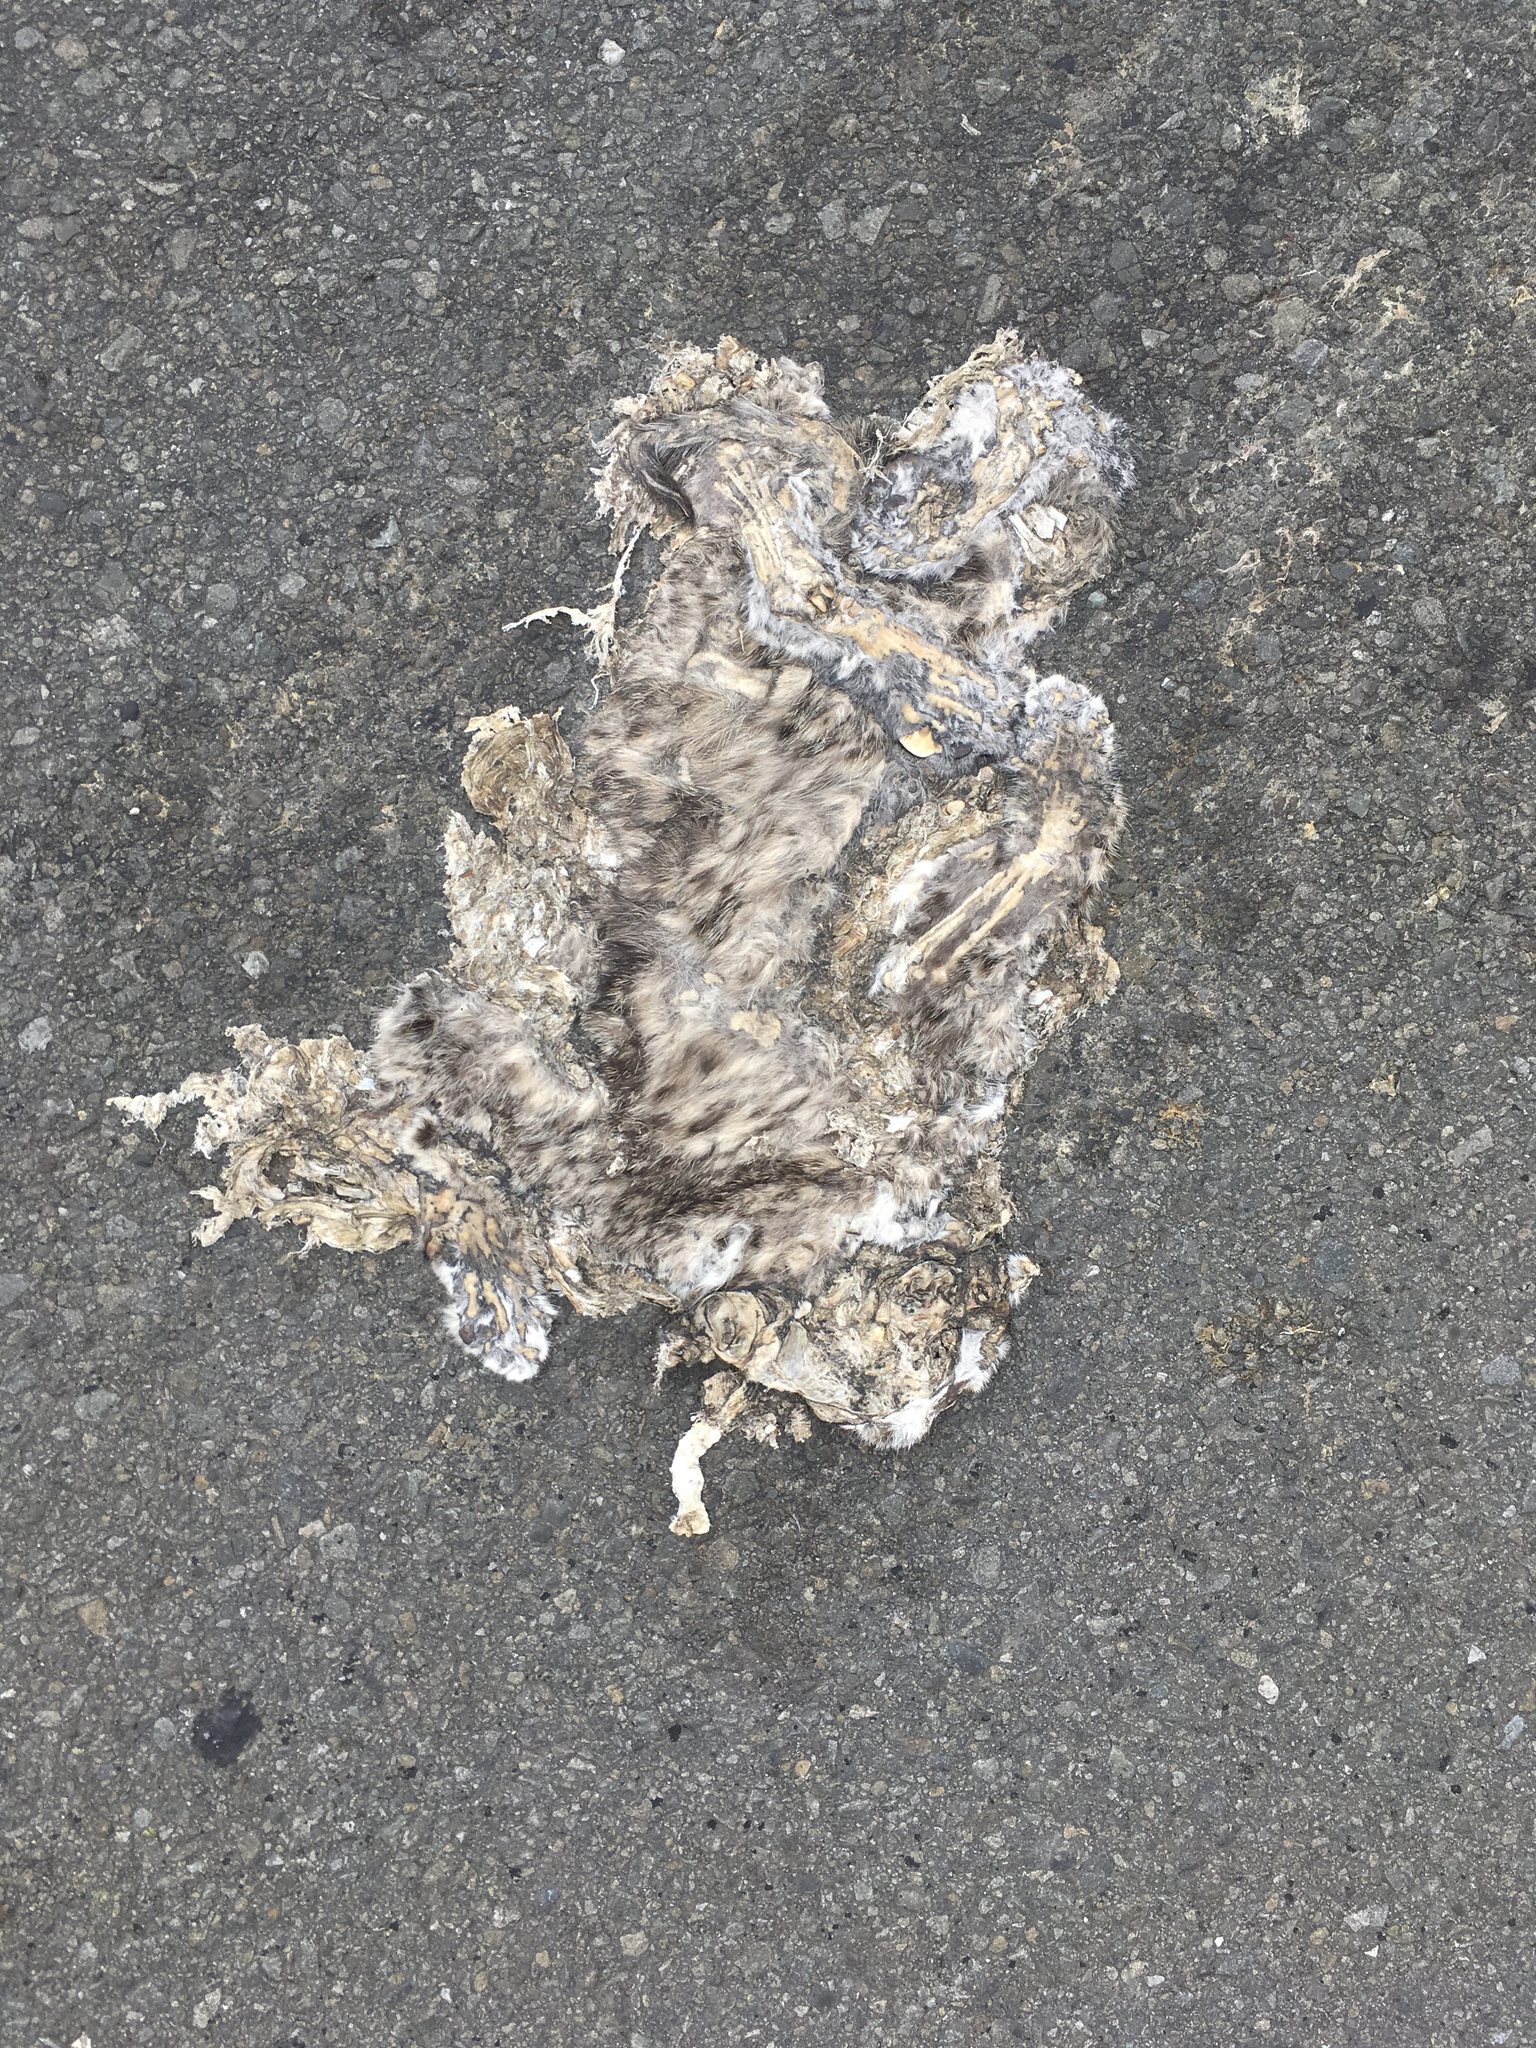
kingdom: Animalia
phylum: Chordata
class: Mammalia
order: Carnivora
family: Felidae
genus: Felis
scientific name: Felis catus
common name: Domestic cat
